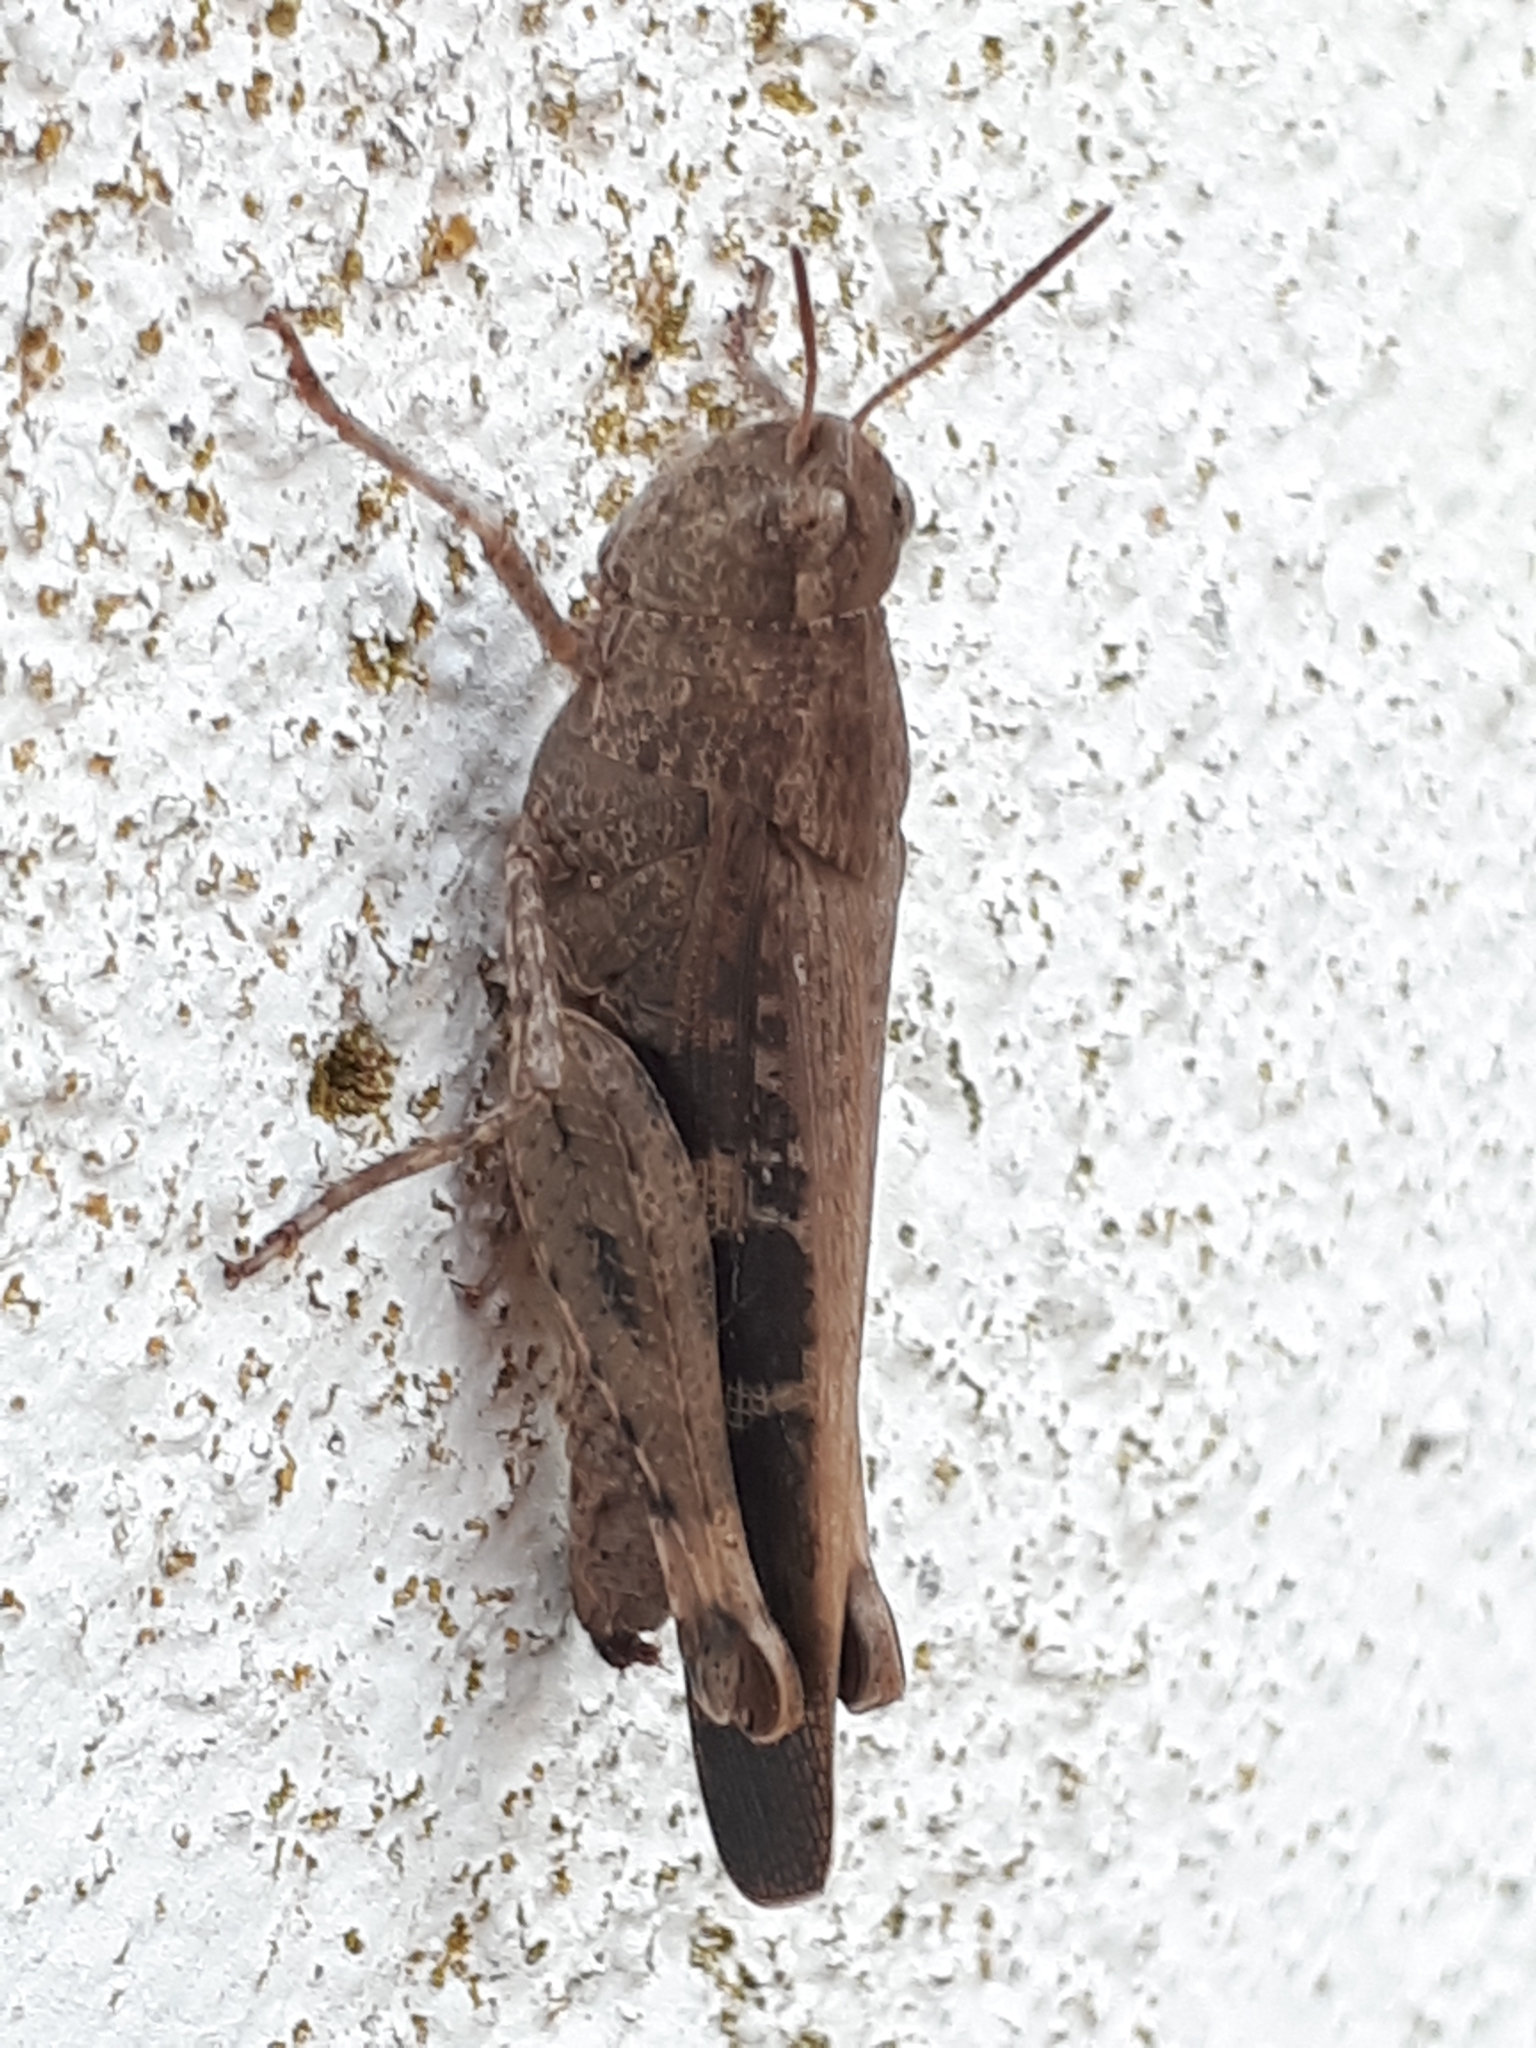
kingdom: Animalia
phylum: Arthropoda
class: Insecta
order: Orthoptera
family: Acrididae
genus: Aiolopus
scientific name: Aiolopus strepens
